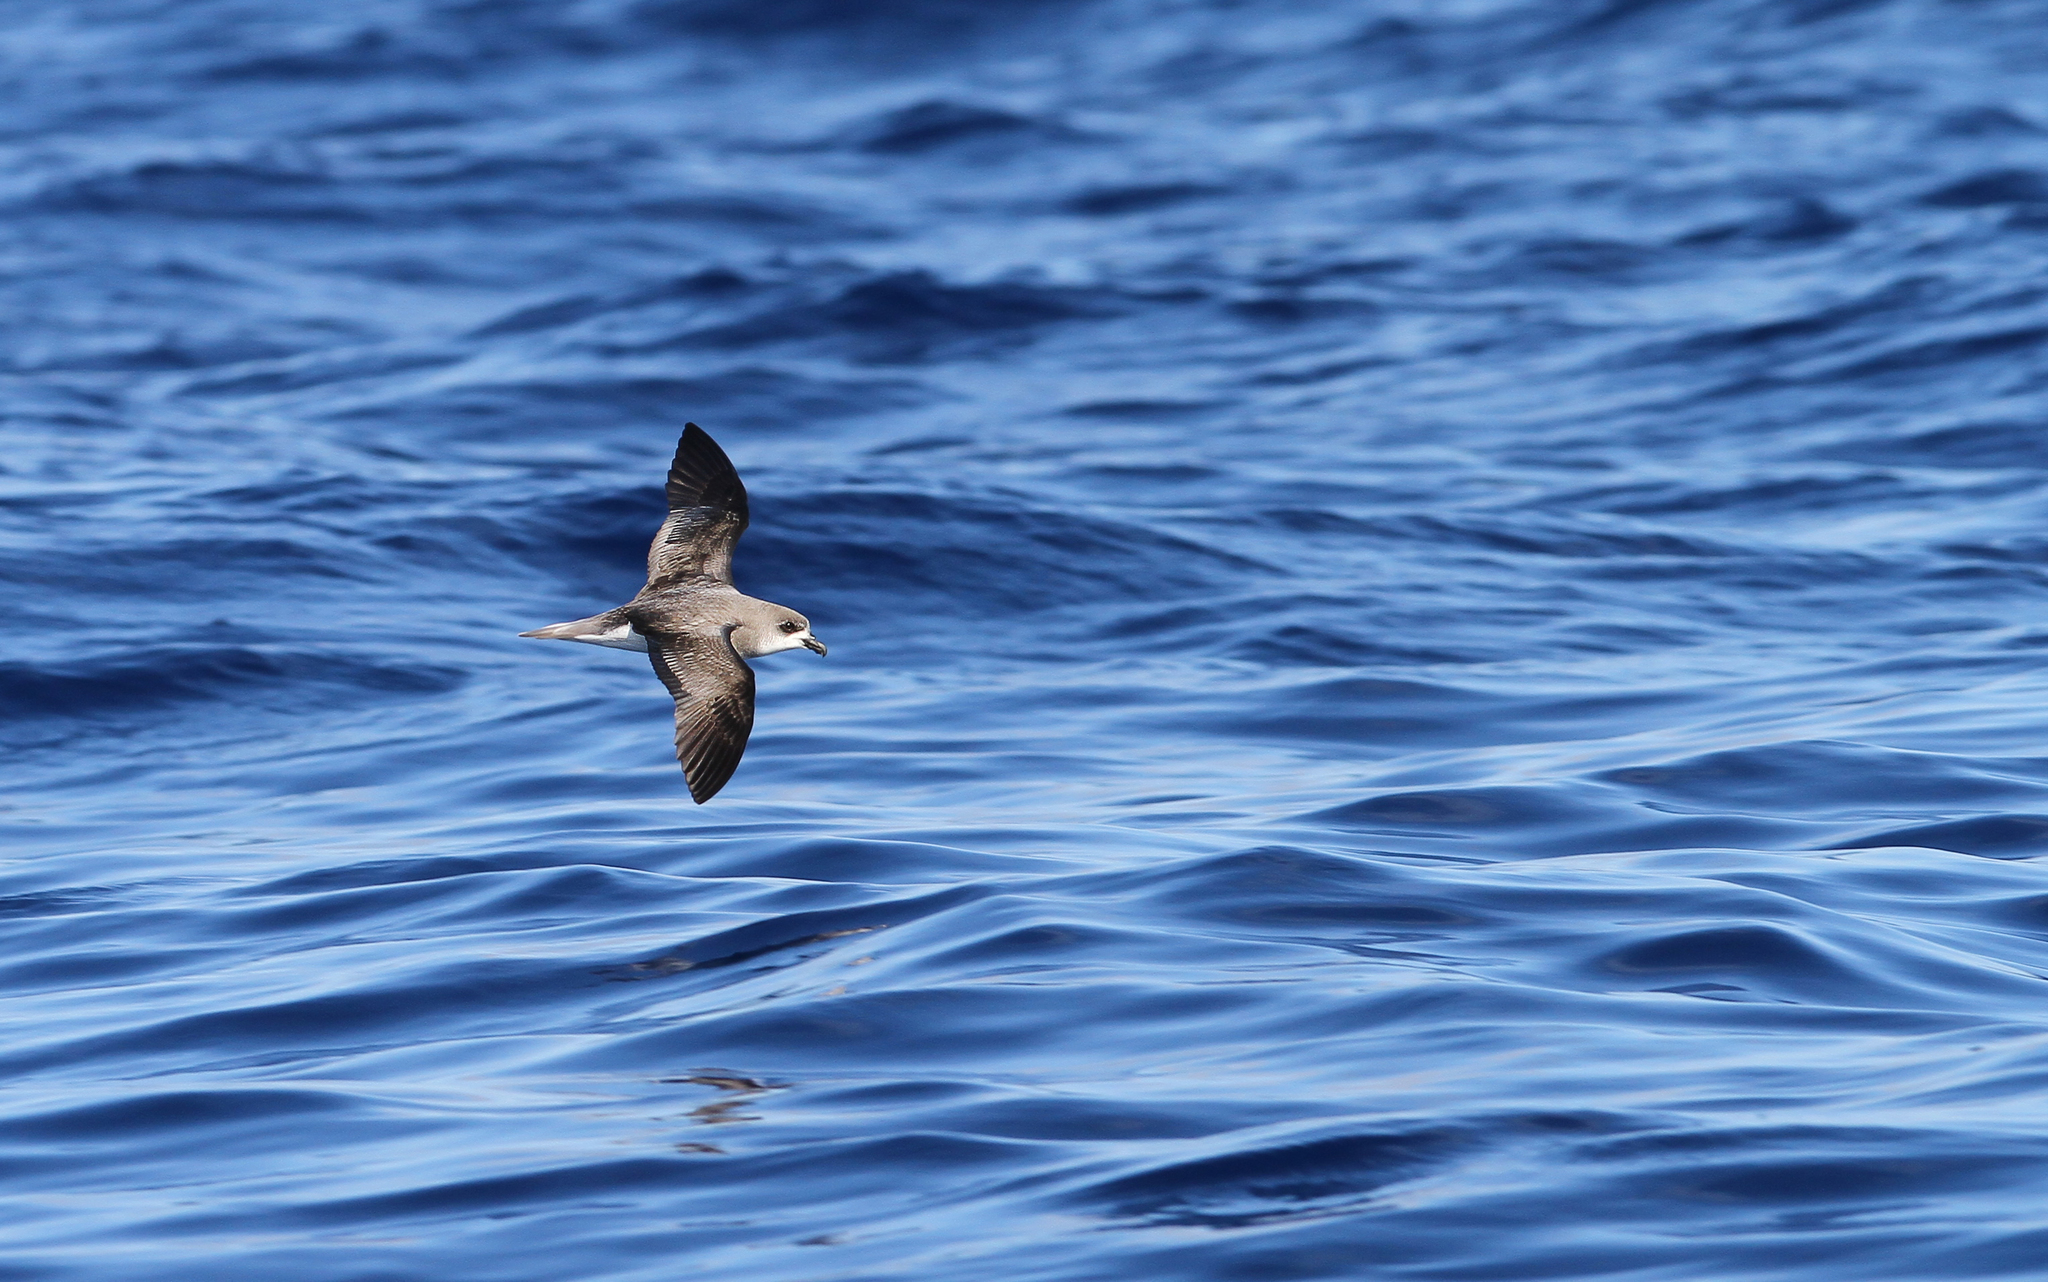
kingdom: Animalia
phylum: Chordata
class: Aves
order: Procellariiformes
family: Procellariidae
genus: Pterodroma
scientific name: Pterodroma madeira
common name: Zino's petrel
